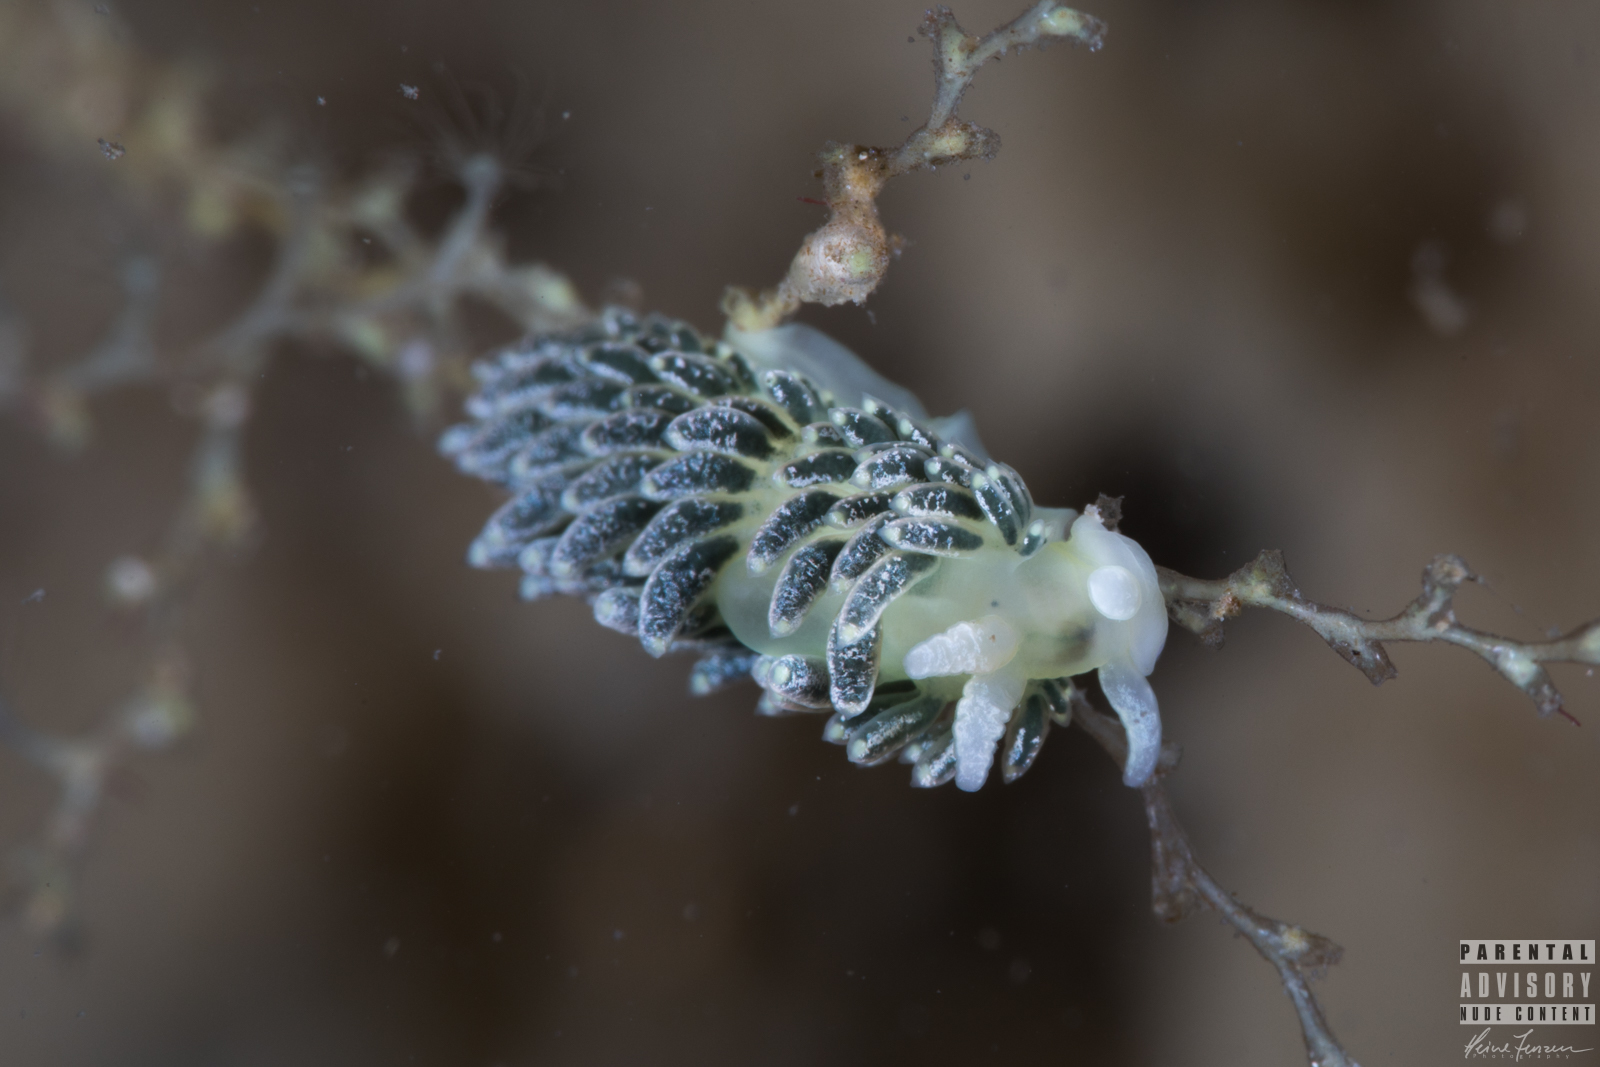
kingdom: Animalia
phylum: Mollusca
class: Gastropoda
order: Nudibranchia
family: Trinchesiidae
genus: Diaphoreolis
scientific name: Diaphoreolis viridis
